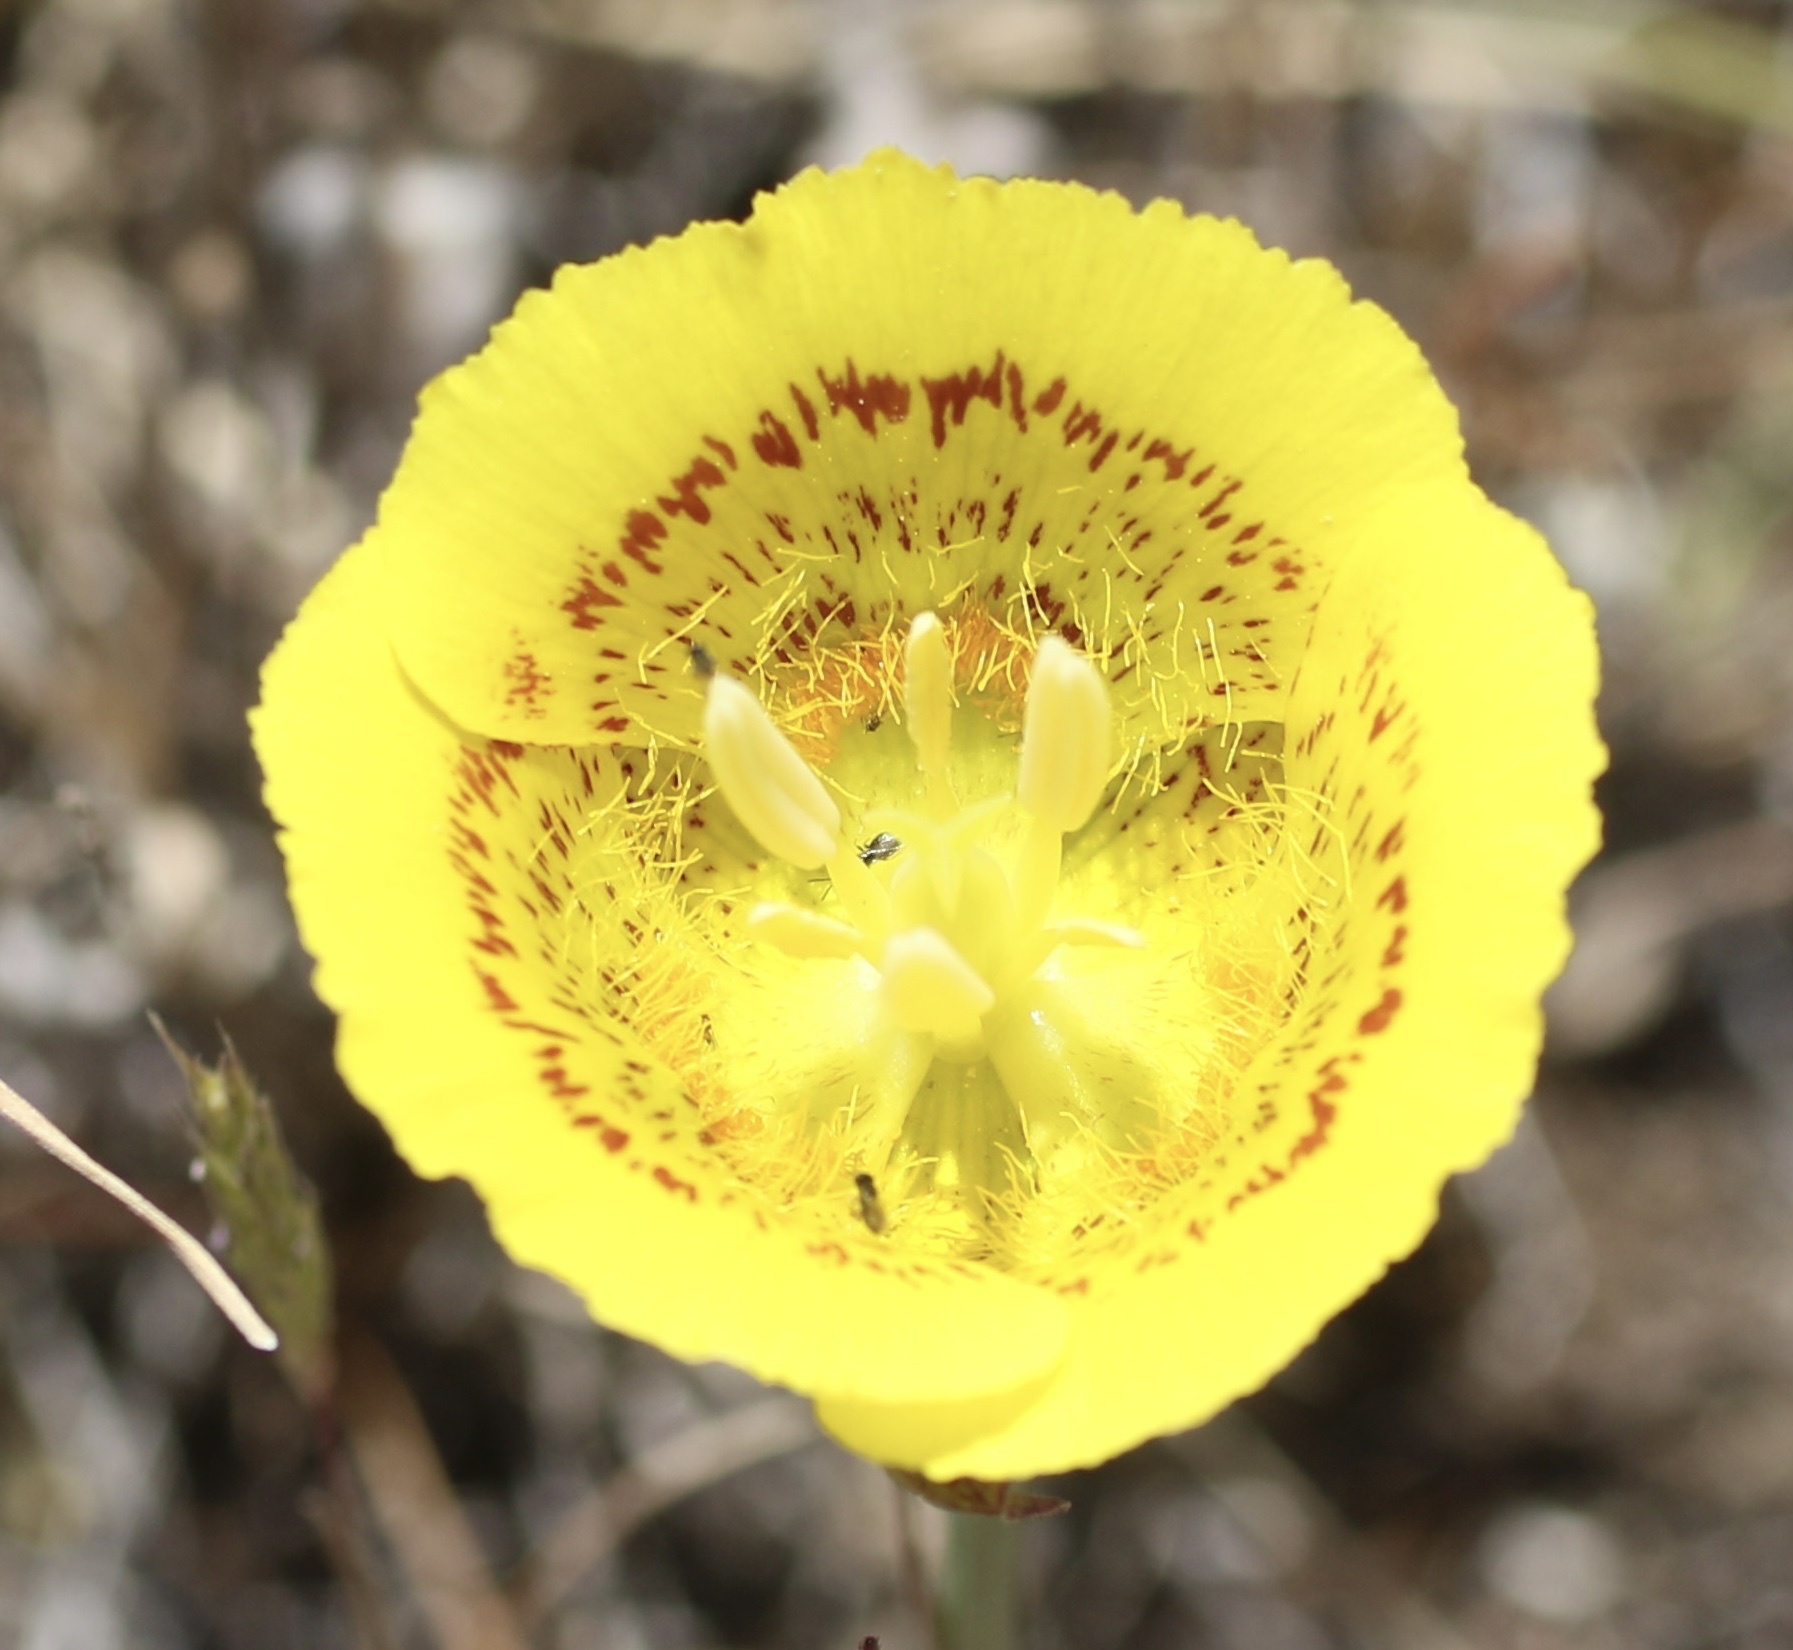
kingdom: Plantae
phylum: Tracheophyta
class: Liliopsida
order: Liliales
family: Liliaceae
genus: Calochortus
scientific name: Calochortus luteus
